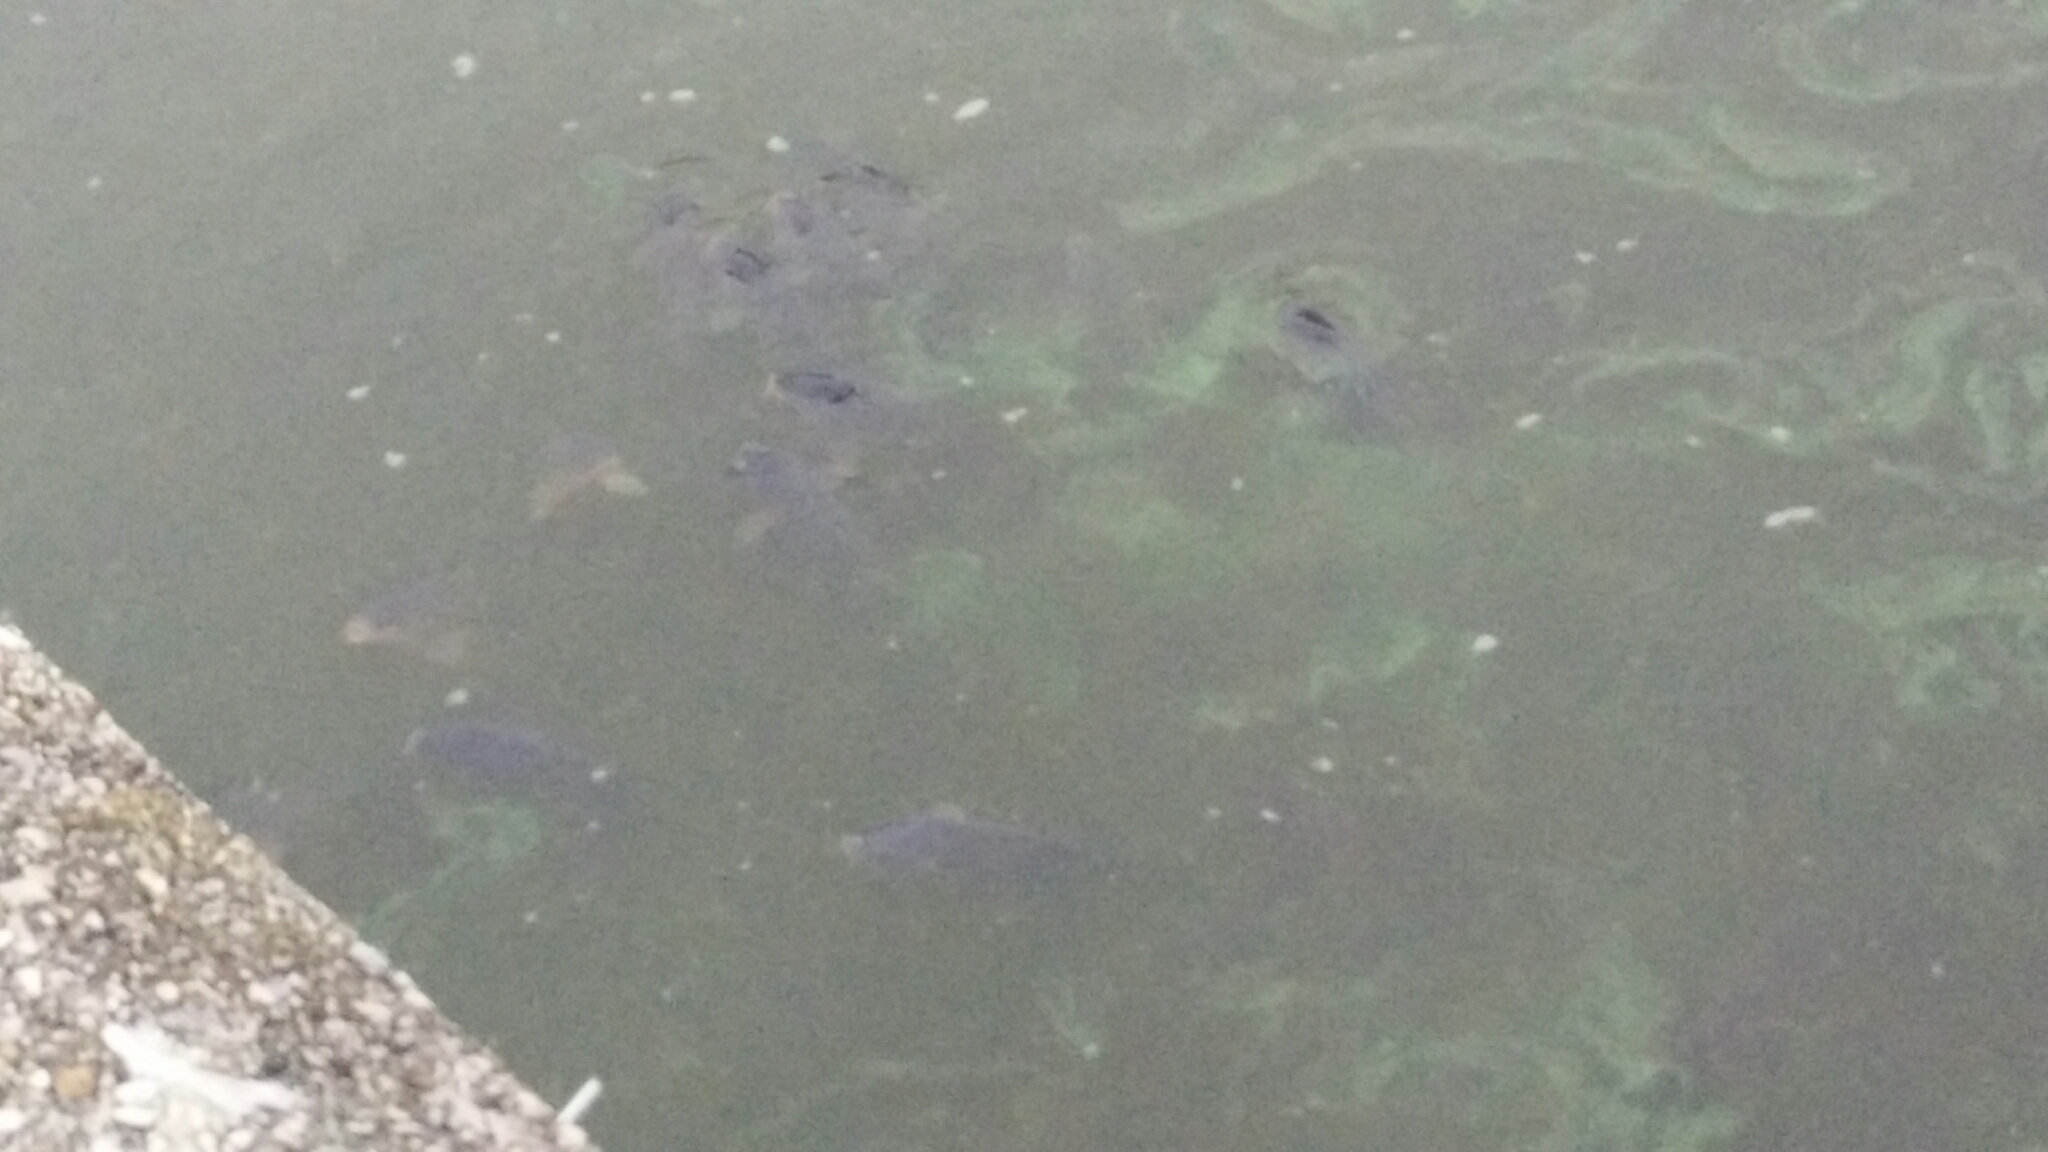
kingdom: Animalia
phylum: Chordata
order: Cypriniformes
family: Cyprinidae
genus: Cyprinus
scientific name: Cyprinus carpio
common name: Common carp
